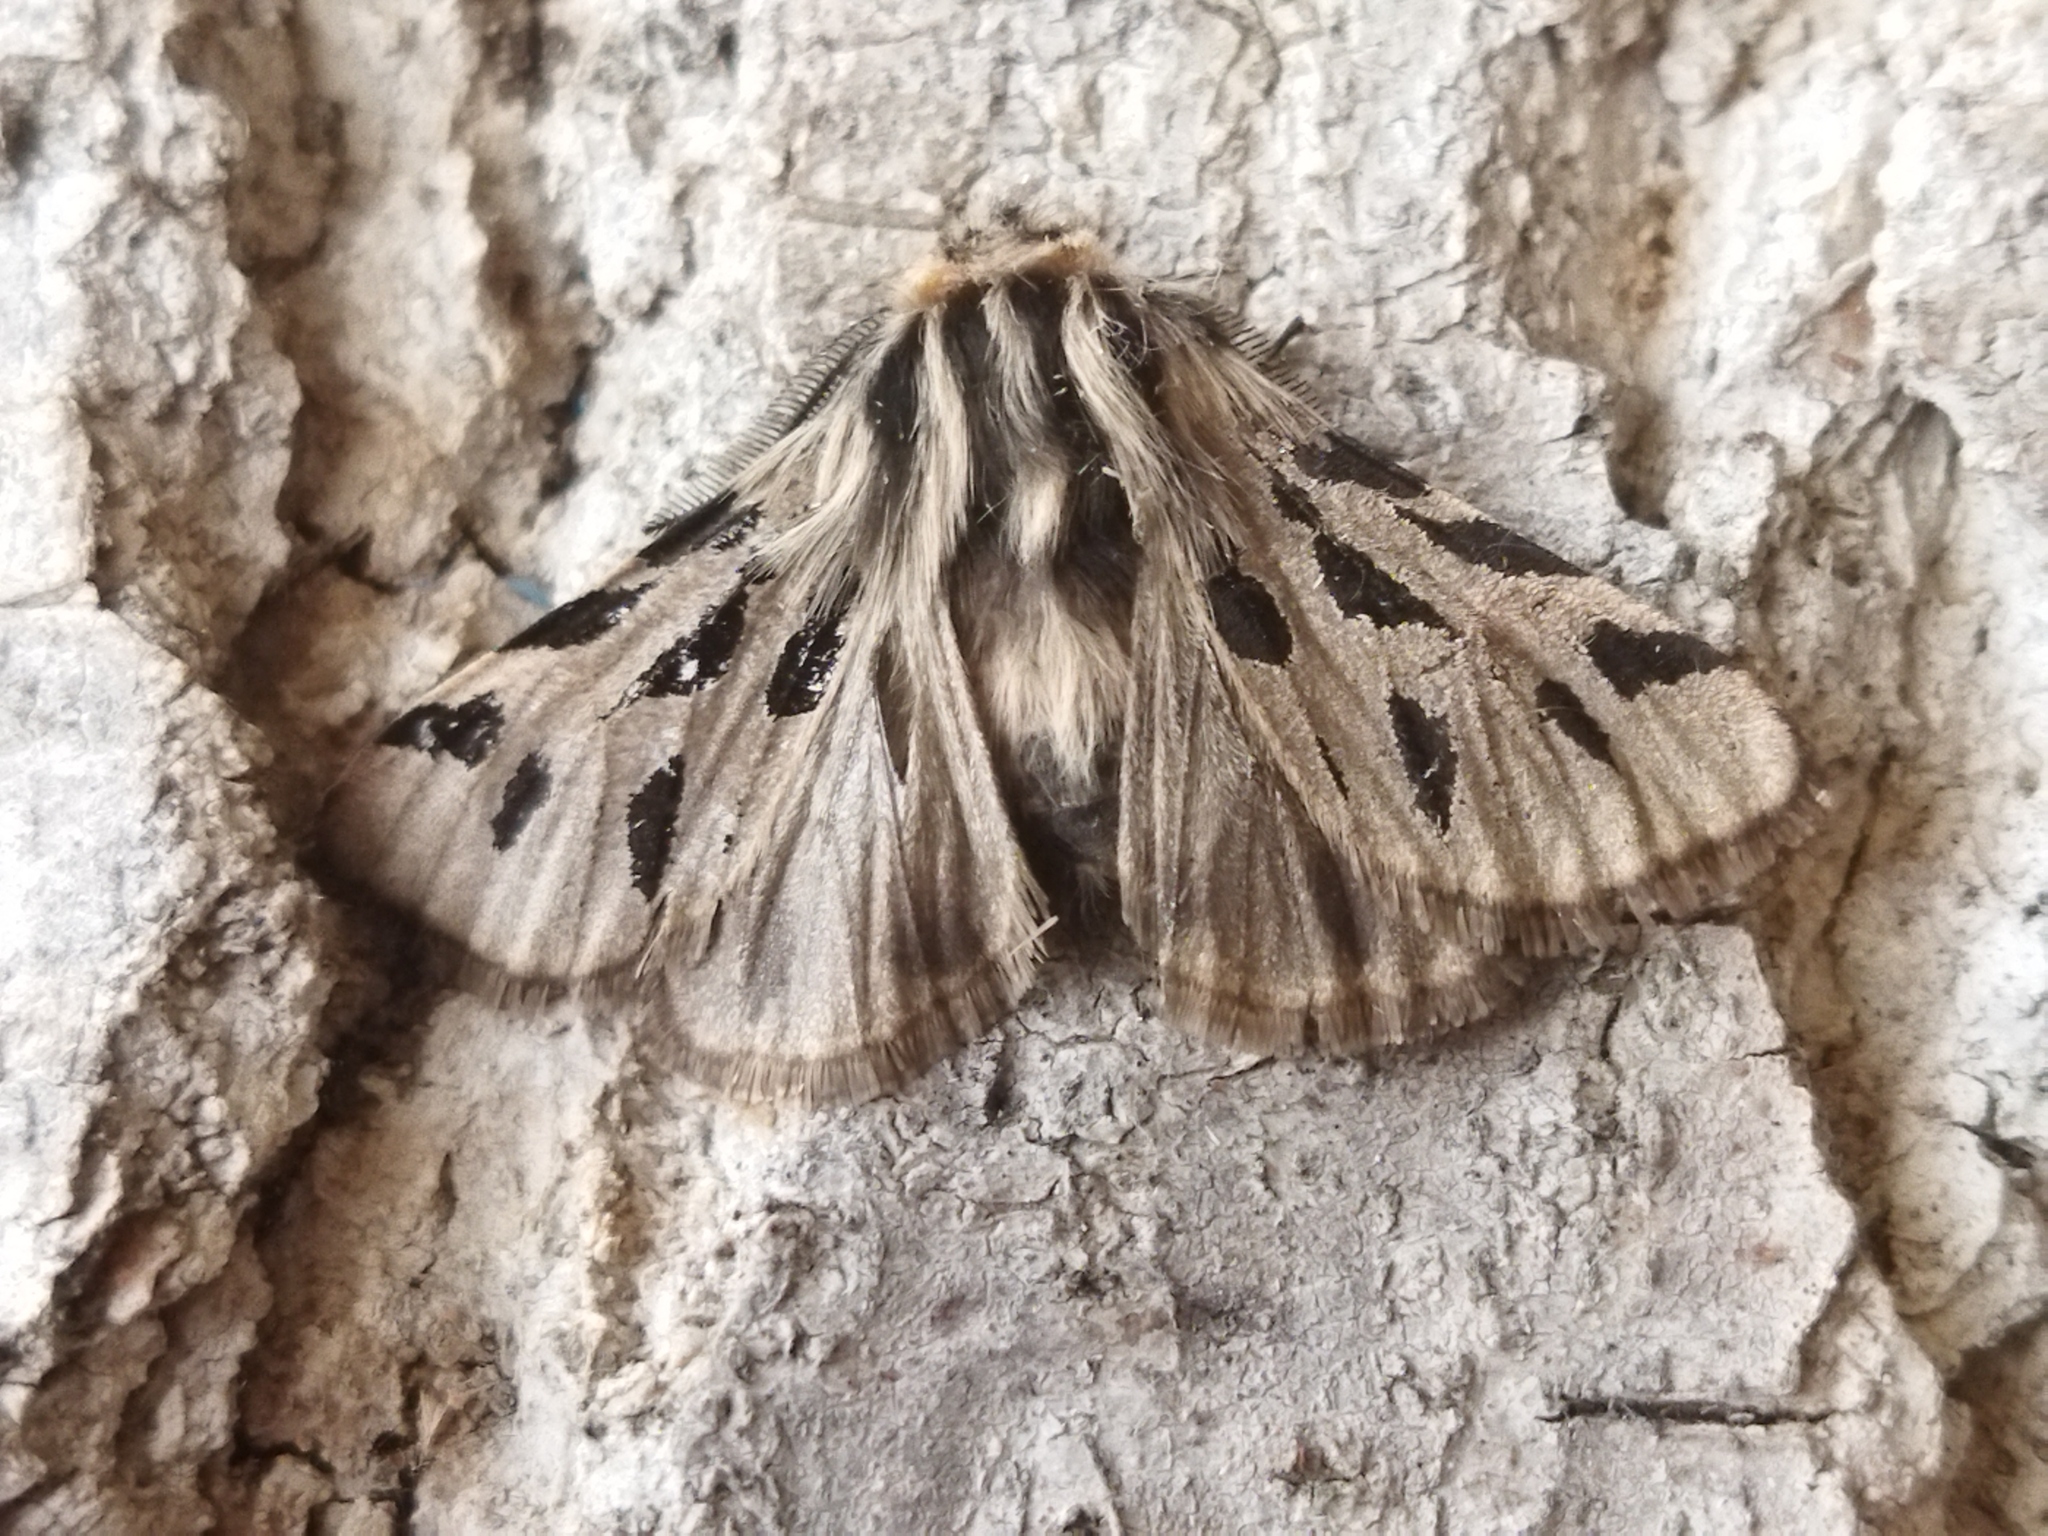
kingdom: Animalia
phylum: Arthropoda
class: Insecta
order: Lepidoptera
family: Erebidae
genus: Ocnogyna
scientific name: Ocnogyna parasita
